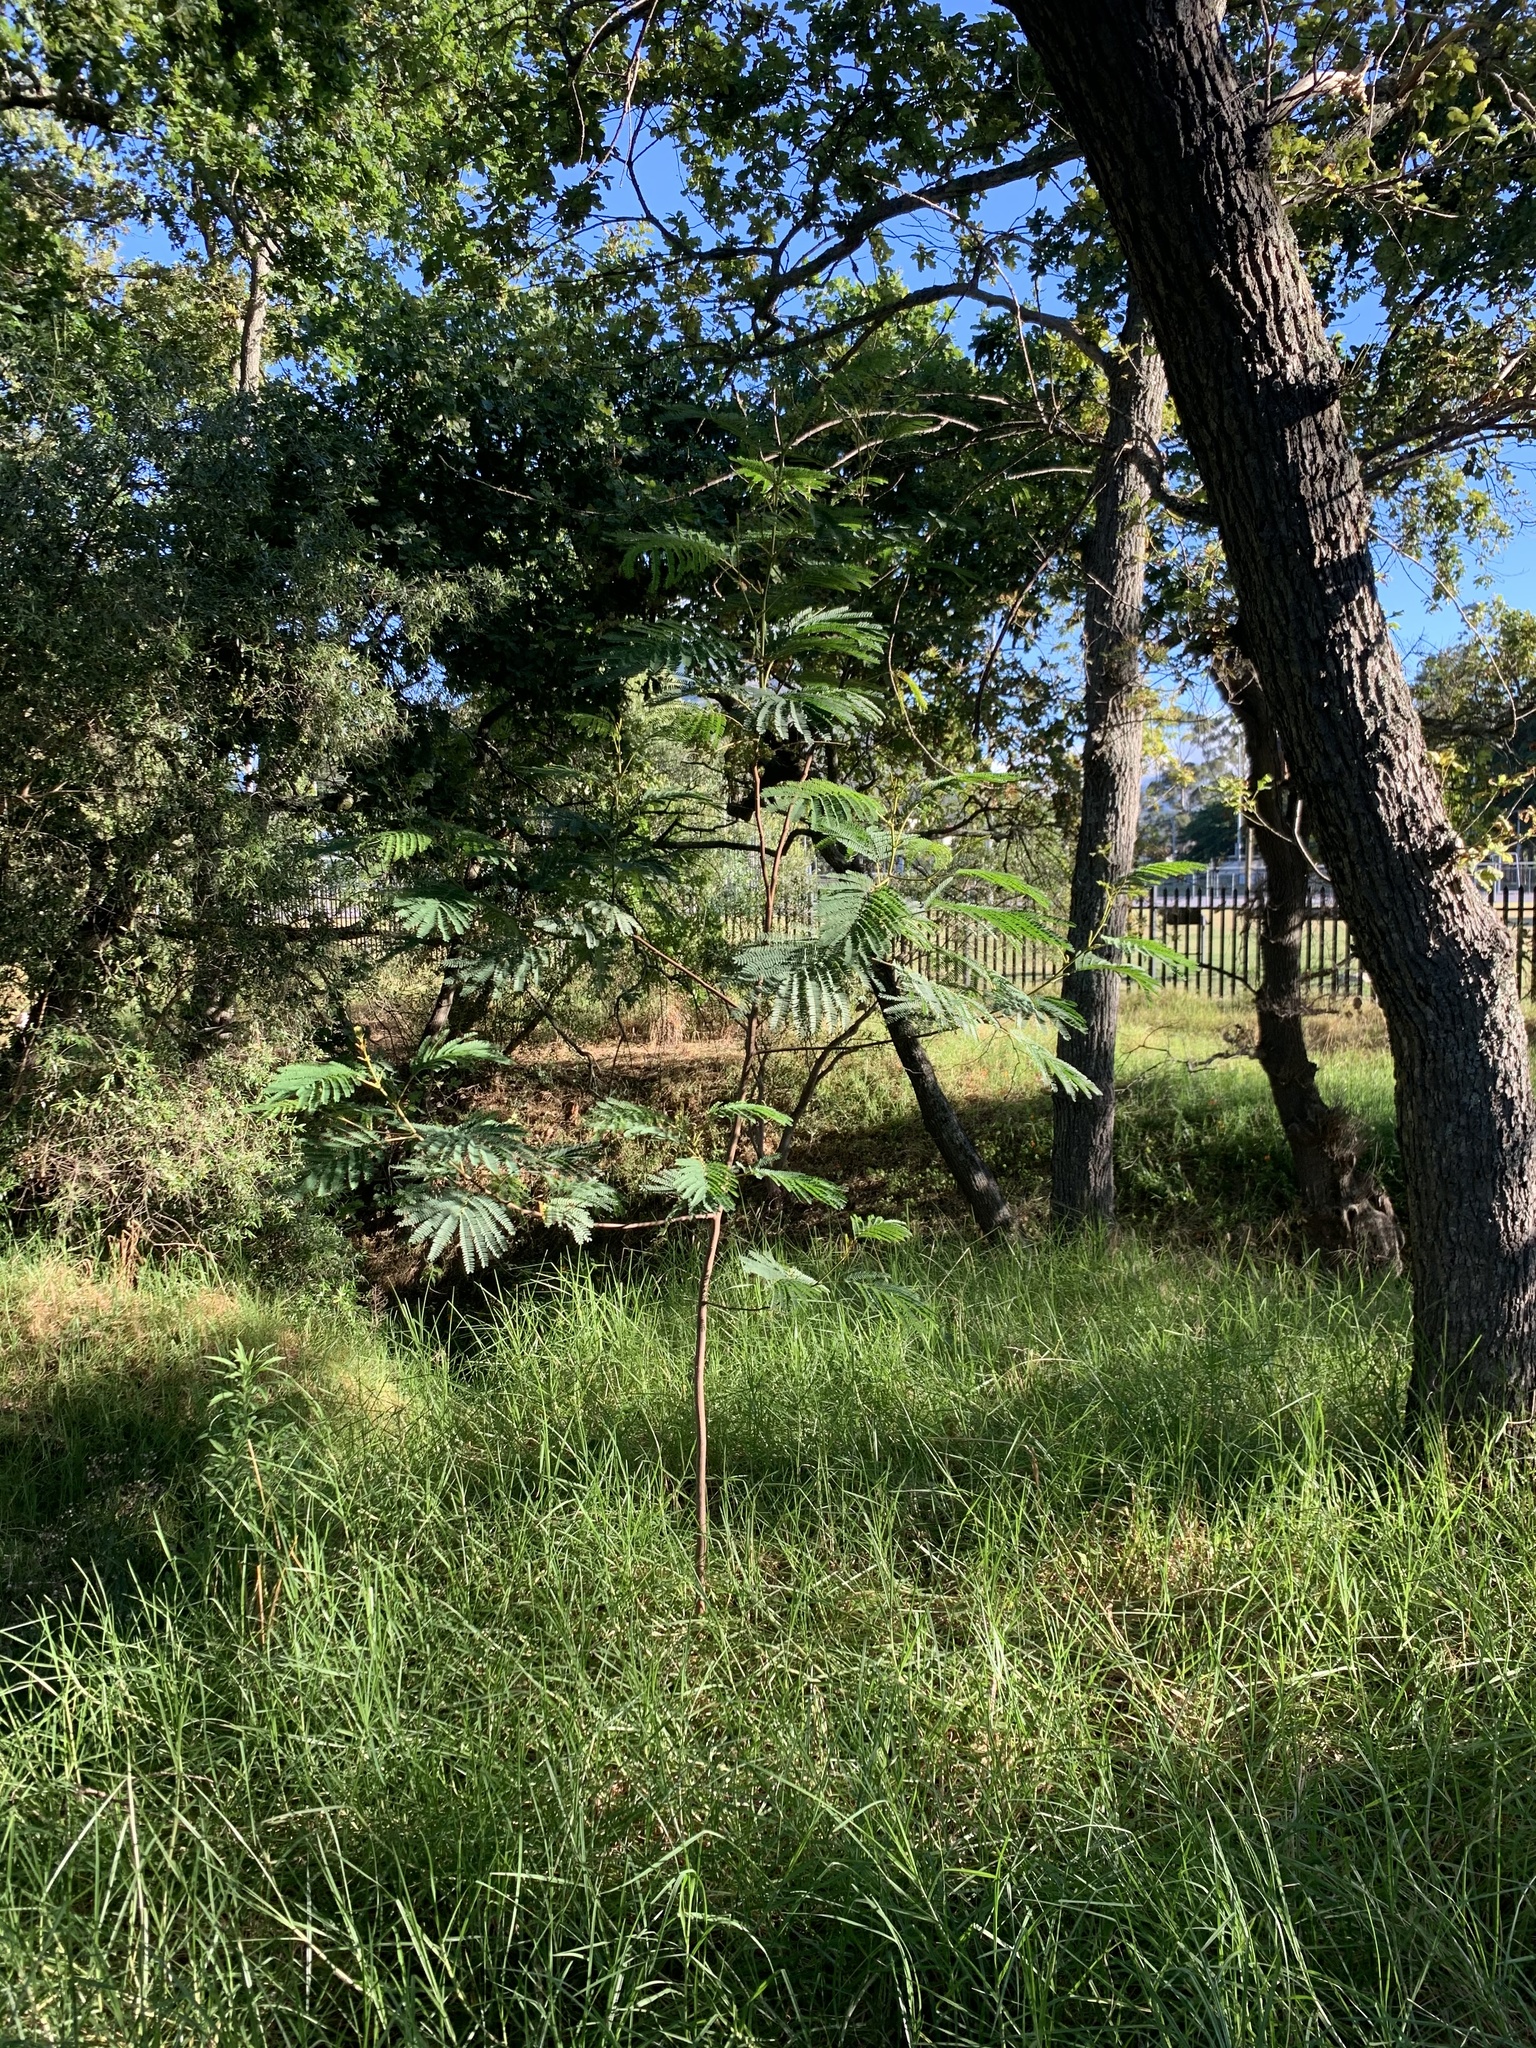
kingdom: Plantae
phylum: Tracheophyta
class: Magnoliopsida
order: Fabales
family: Fabaceae
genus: Paraserianthes
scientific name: Paraserianthes lophantha
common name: Plume albizia
